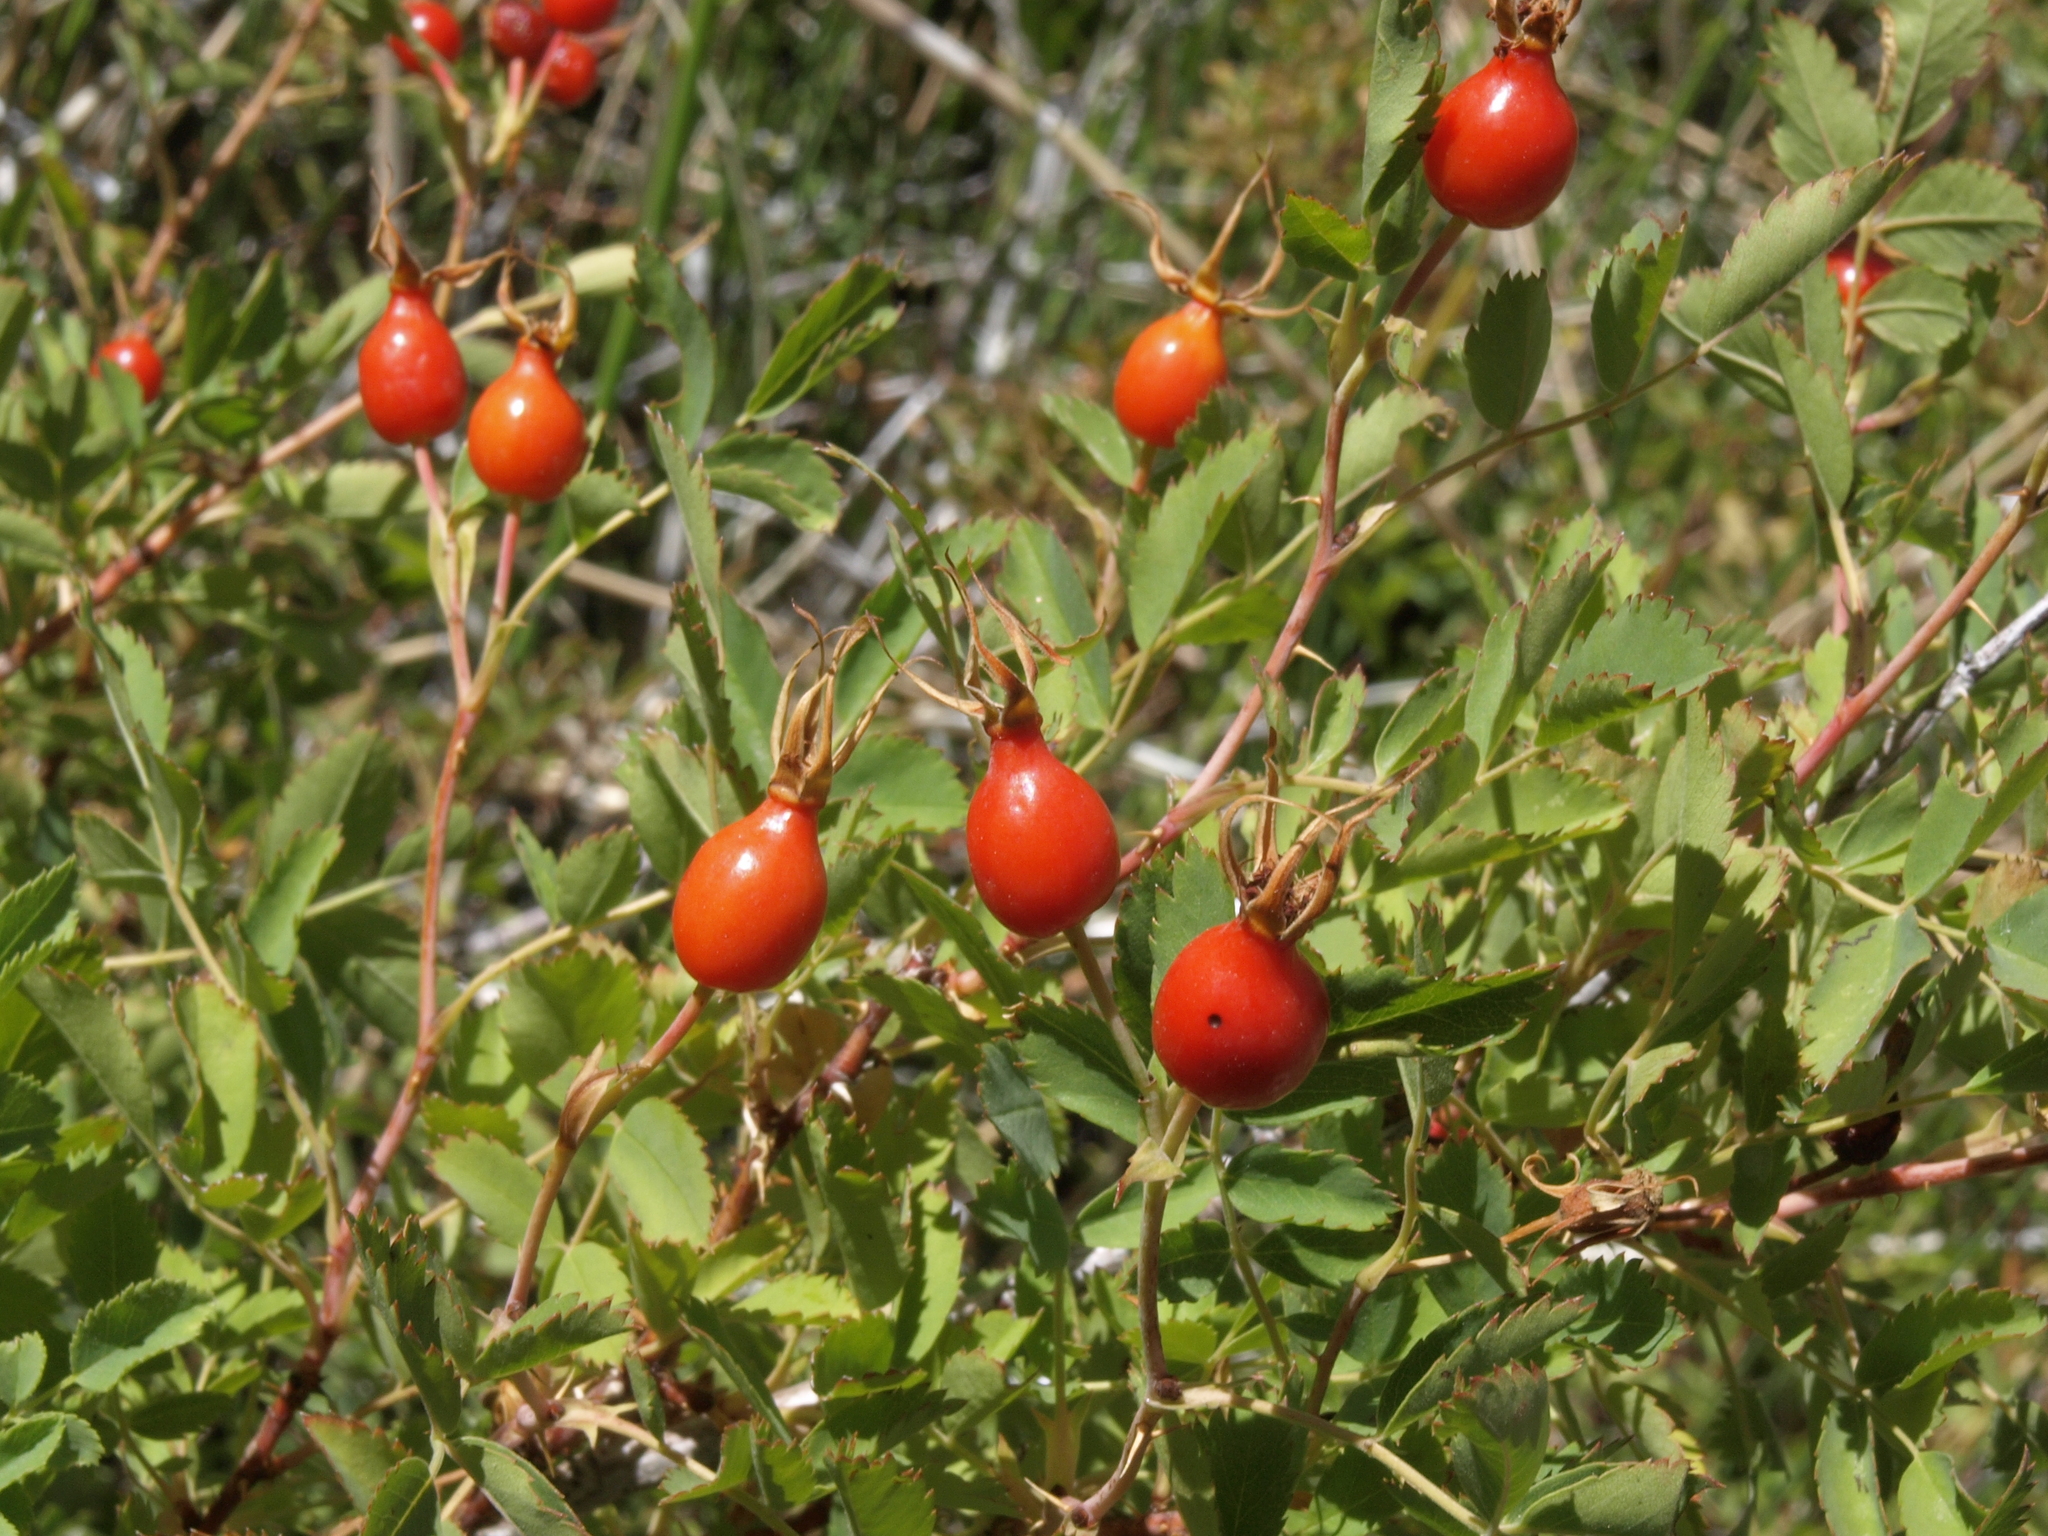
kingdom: Plantae
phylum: Tracheophyta
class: Magnoliopsida
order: Rosales
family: Rosaceae
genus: Rosa
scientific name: Rosa woodsii
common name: Woods's rose
